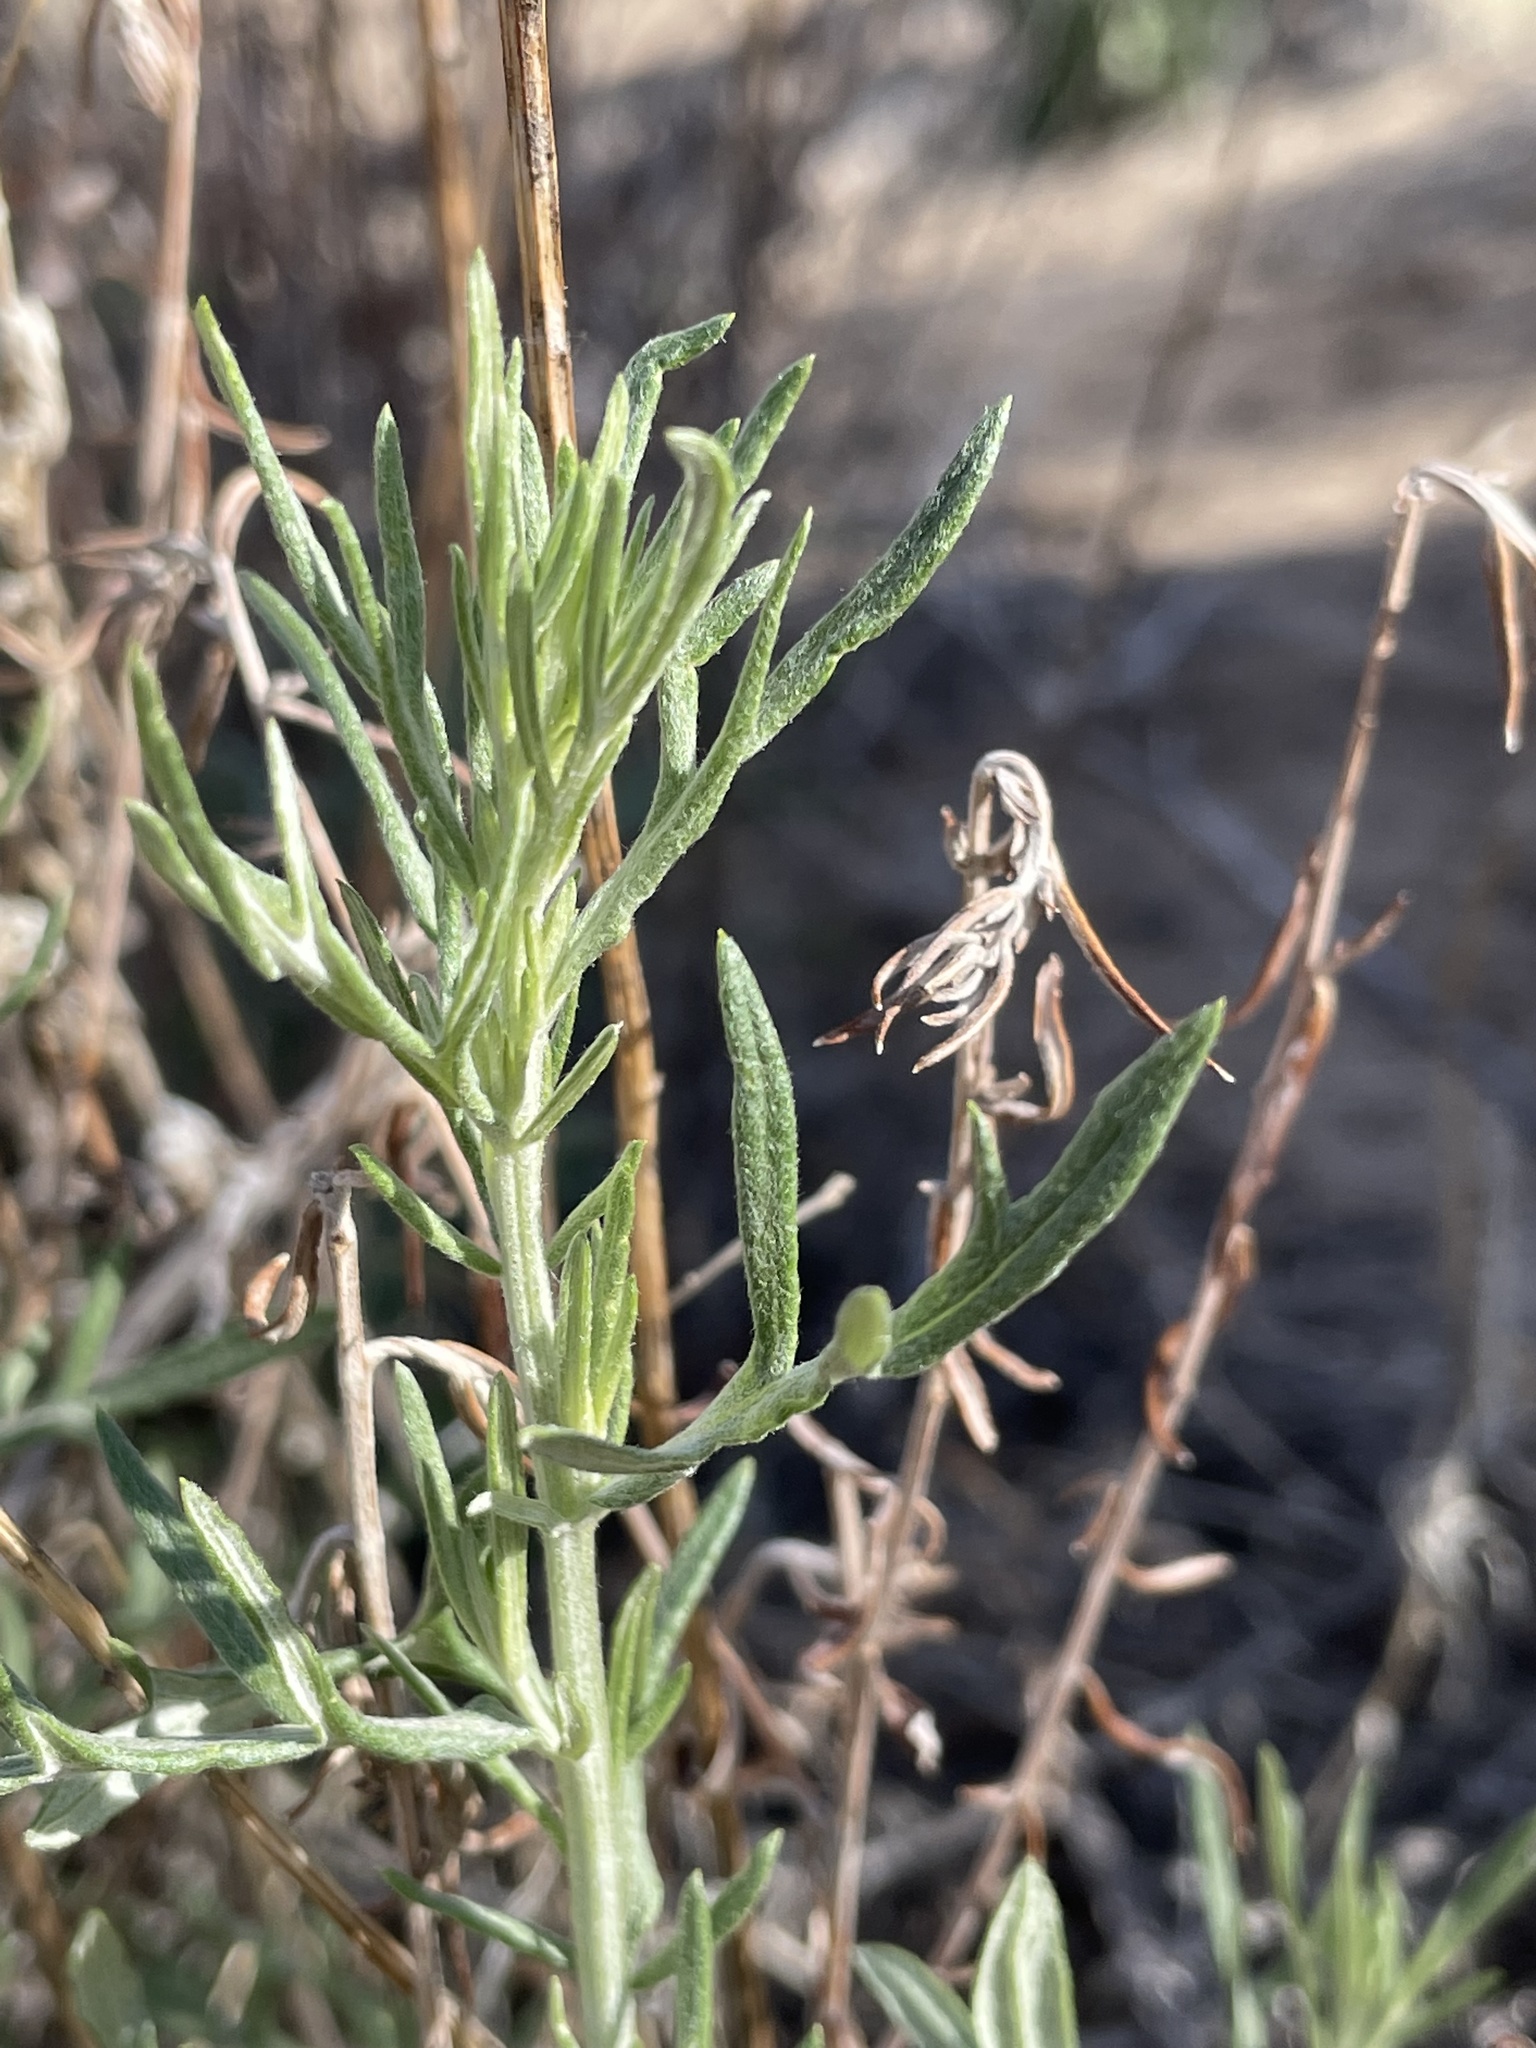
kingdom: Plantae
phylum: Tracheophyta
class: Magnoliopsida
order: Asterales
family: Asteraceae
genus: Artemisia
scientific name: Artemisia ludoviciana
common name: Western mugwort
